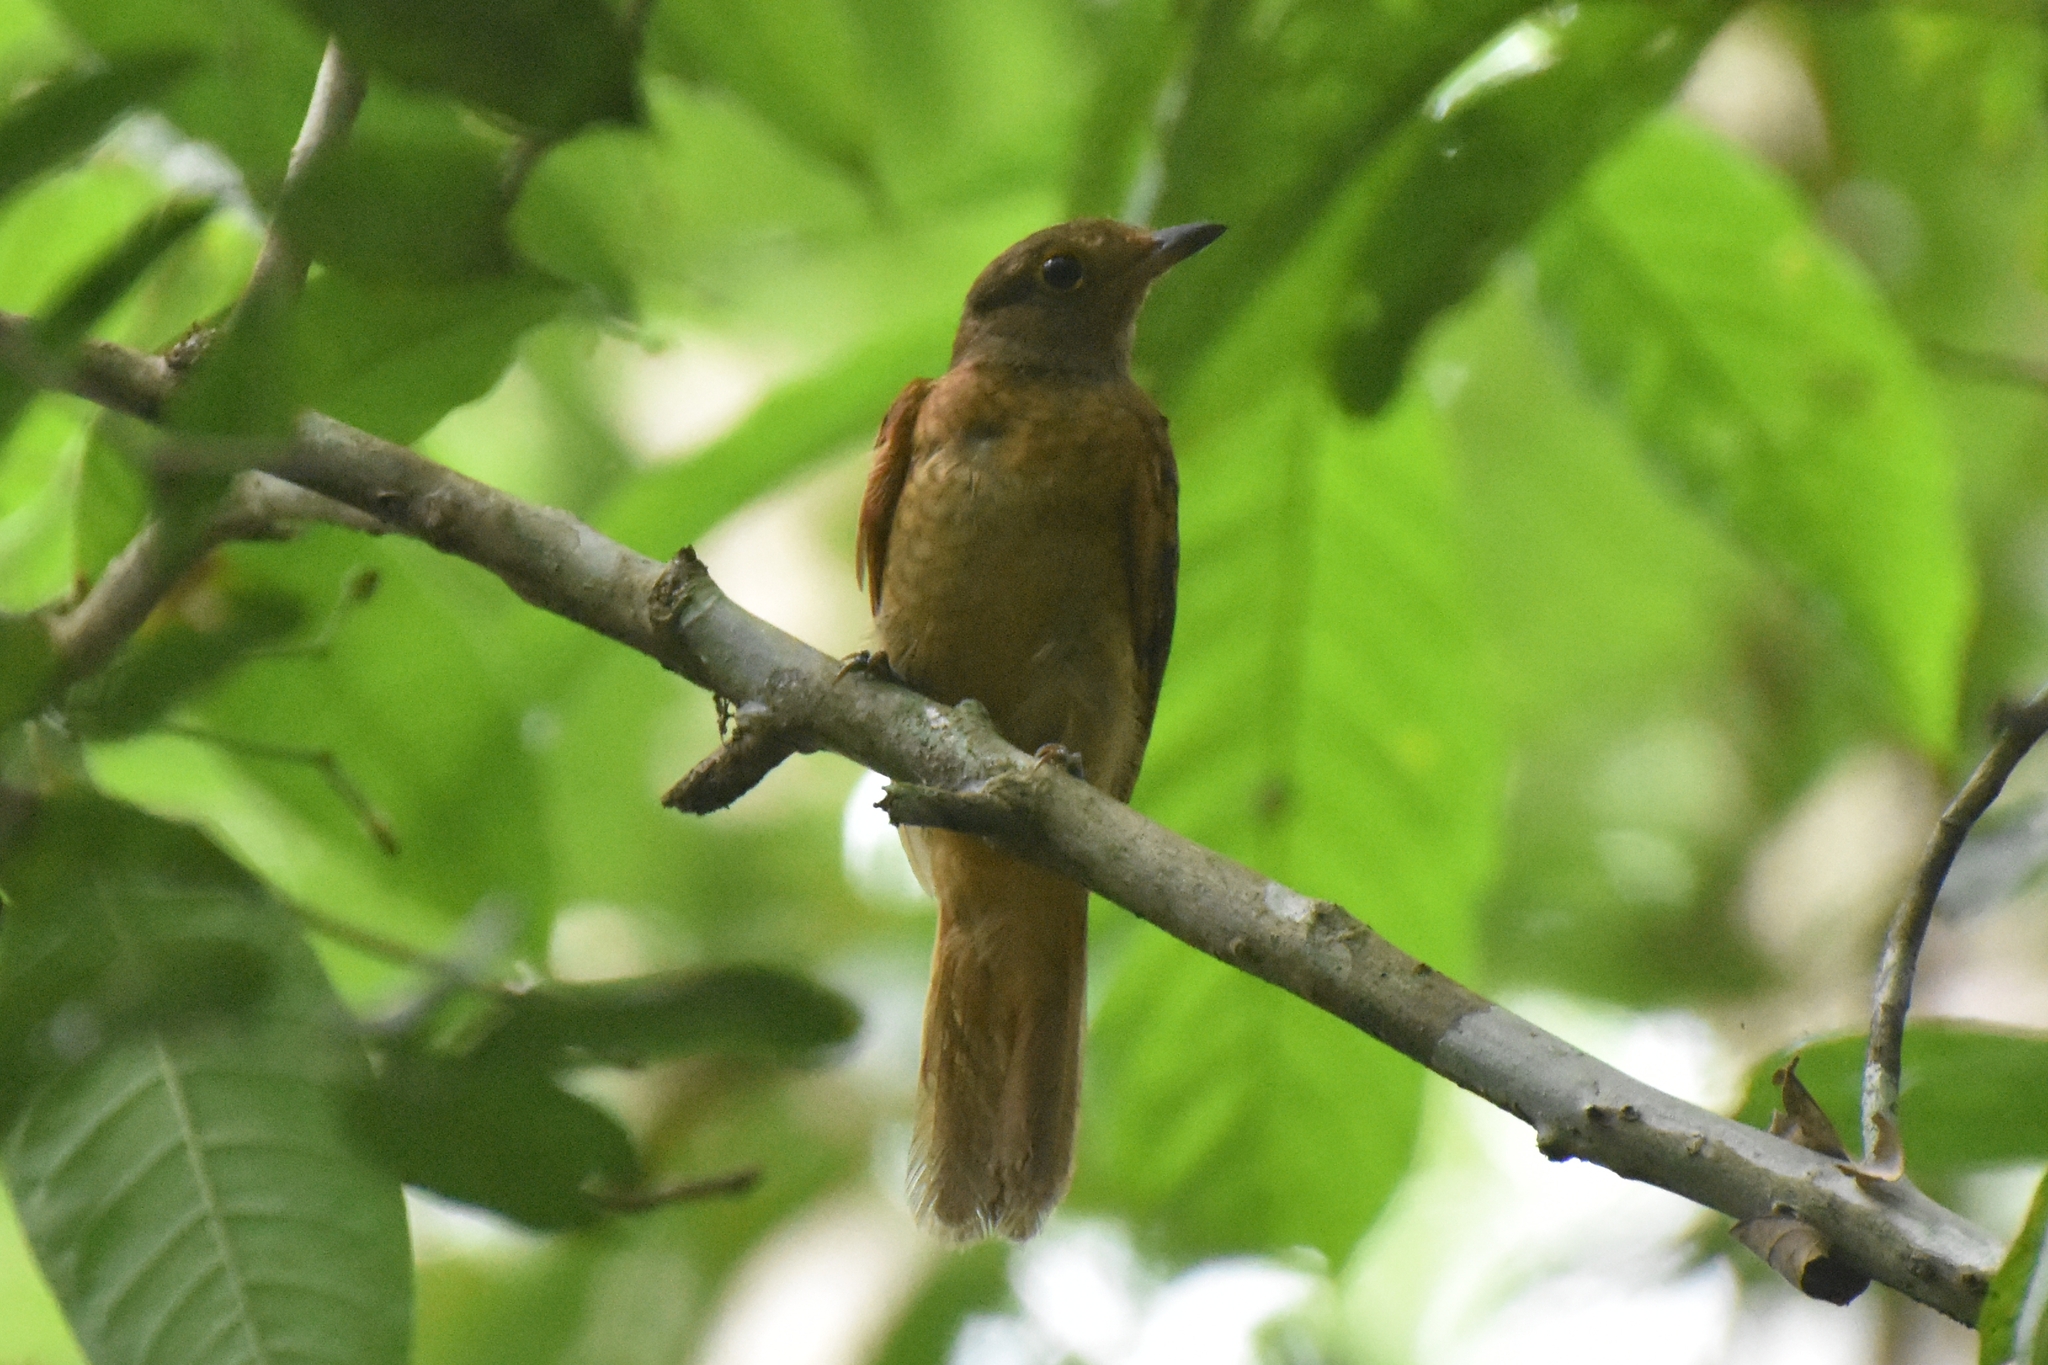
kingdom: Animalia
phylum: Chordata
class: Aves
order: Passeriformes
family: Cotingidae
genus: Laniocera
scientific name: Laniocera rufescens
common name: Speckled mourner
